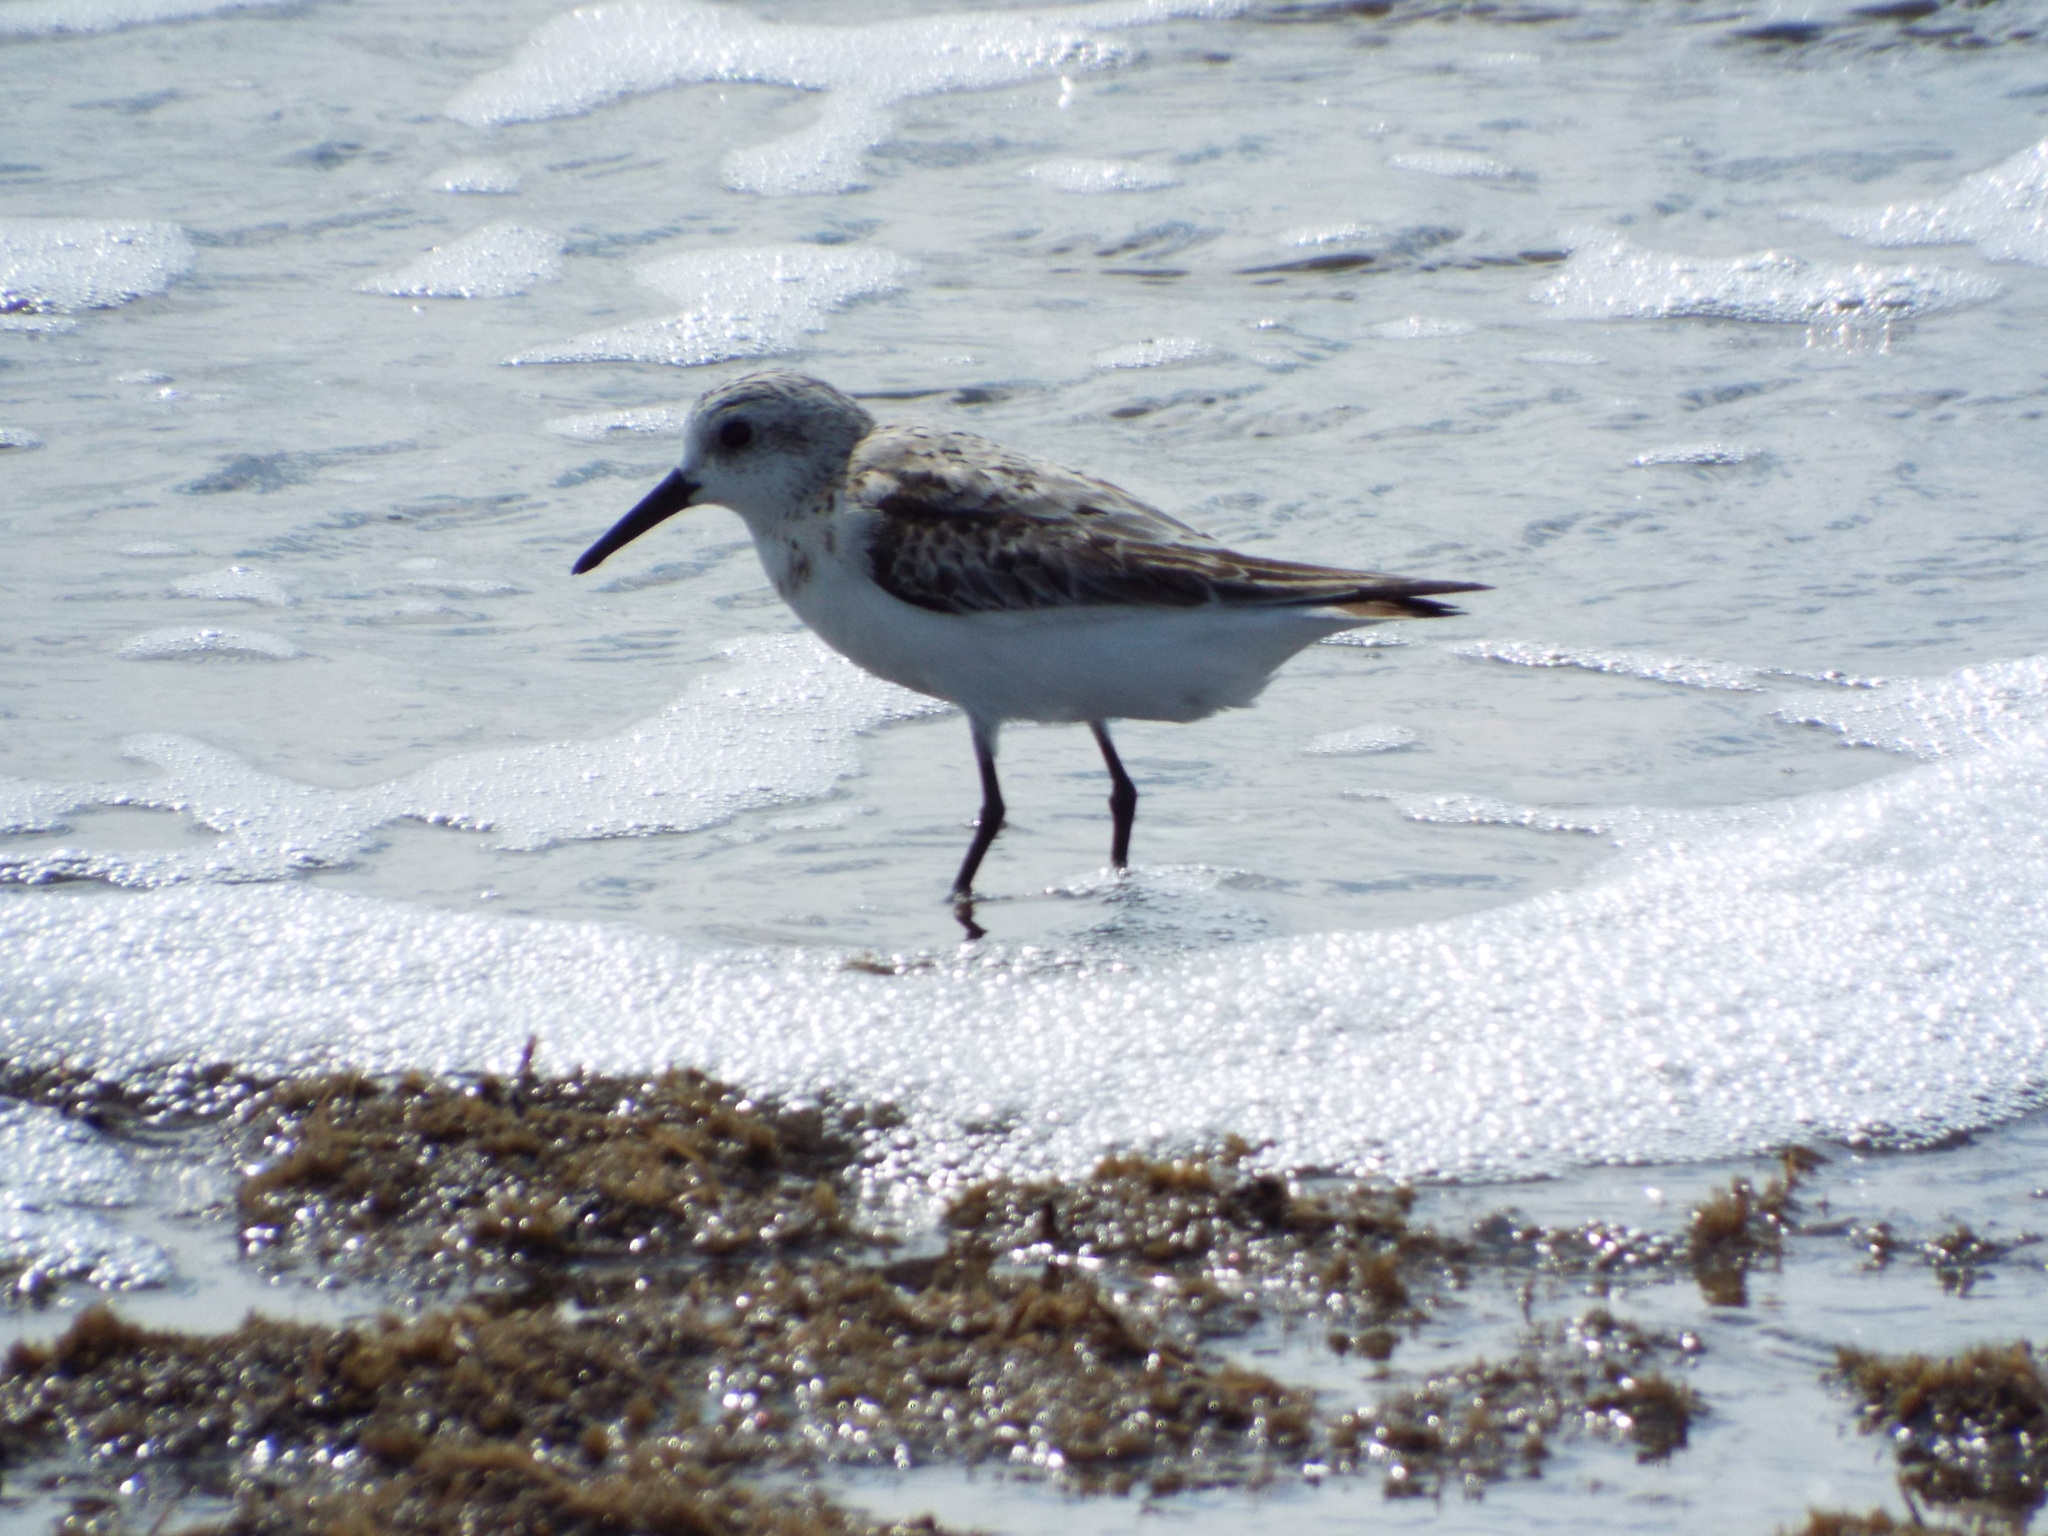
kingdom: Animalia
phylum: Chordata
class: Aves
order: Charadriiformes
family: Scolopacidae
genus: Calidris
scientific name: Calidris alba
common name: Sanderling
